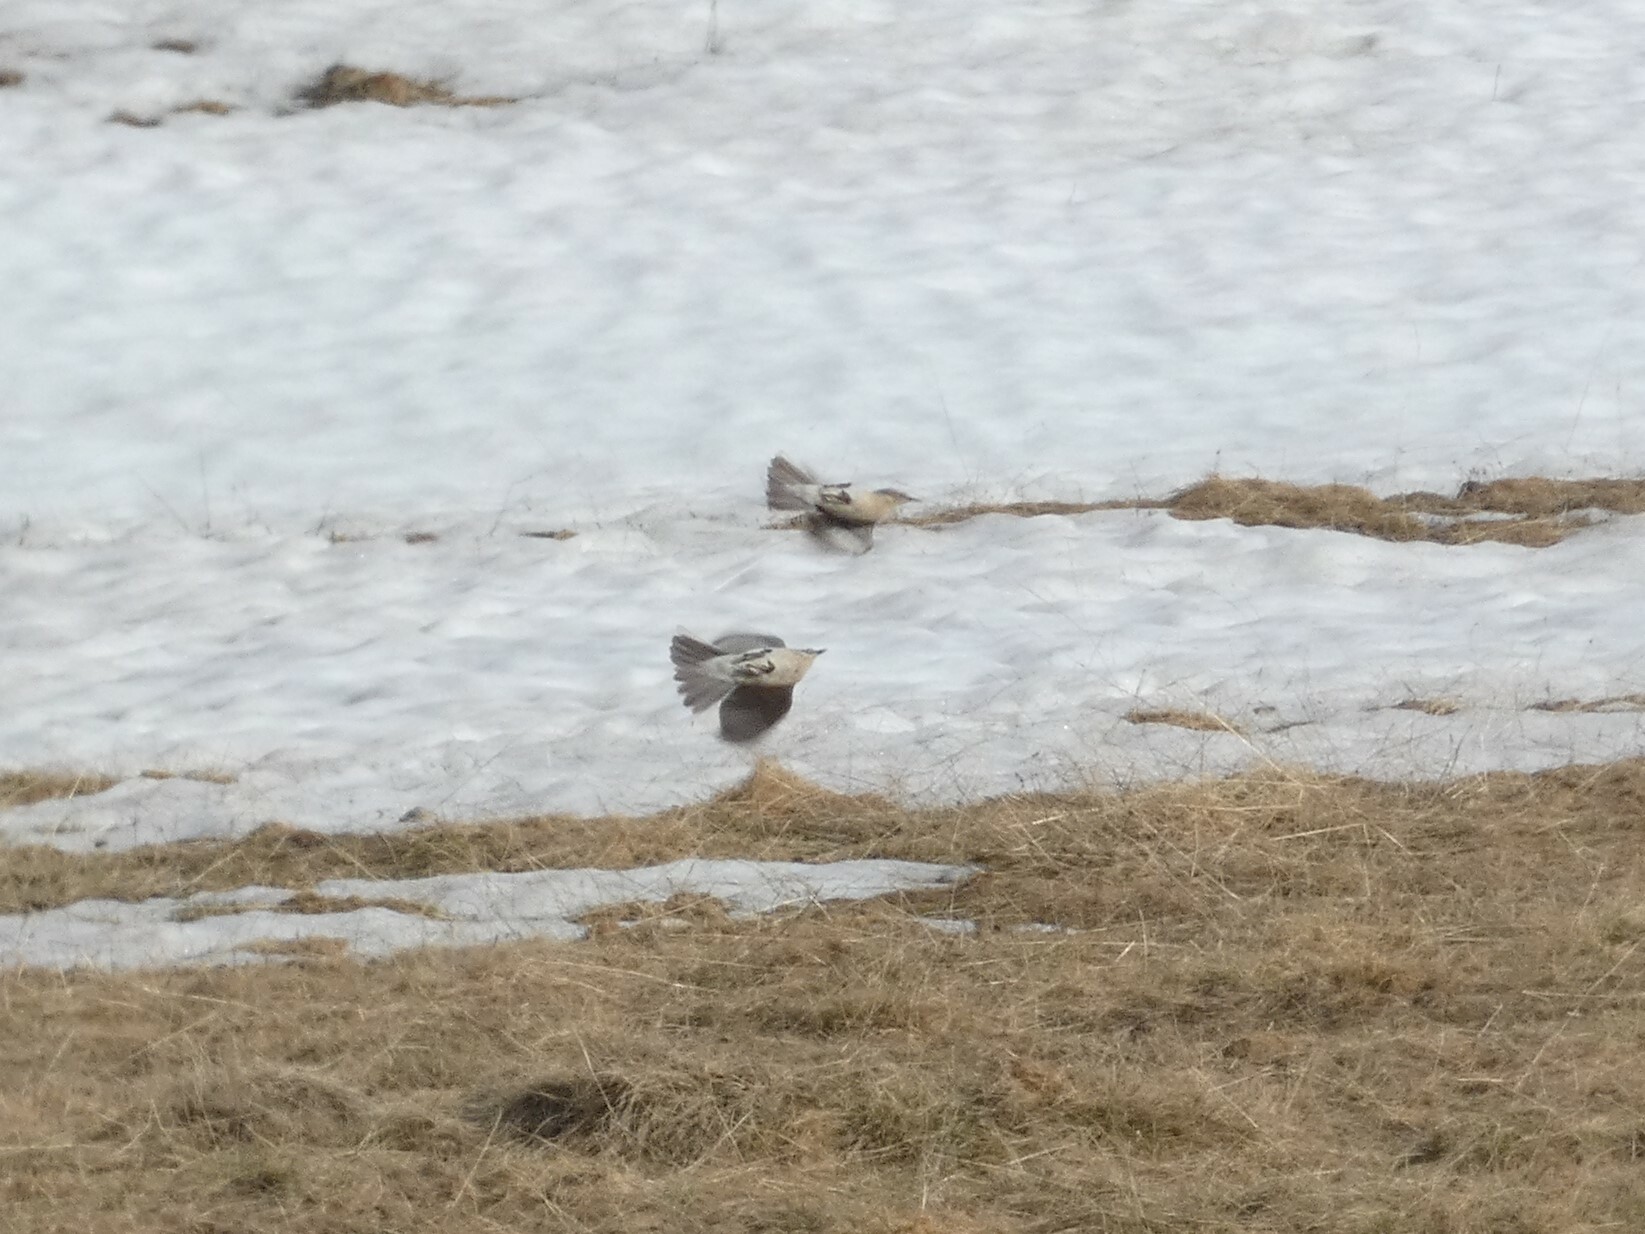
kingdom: Animalia
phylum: Chordata
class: Aves
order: Passeriformes
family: Motacillidae
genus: Anthus
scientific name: Anthus spinoletta
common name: Water pipit
